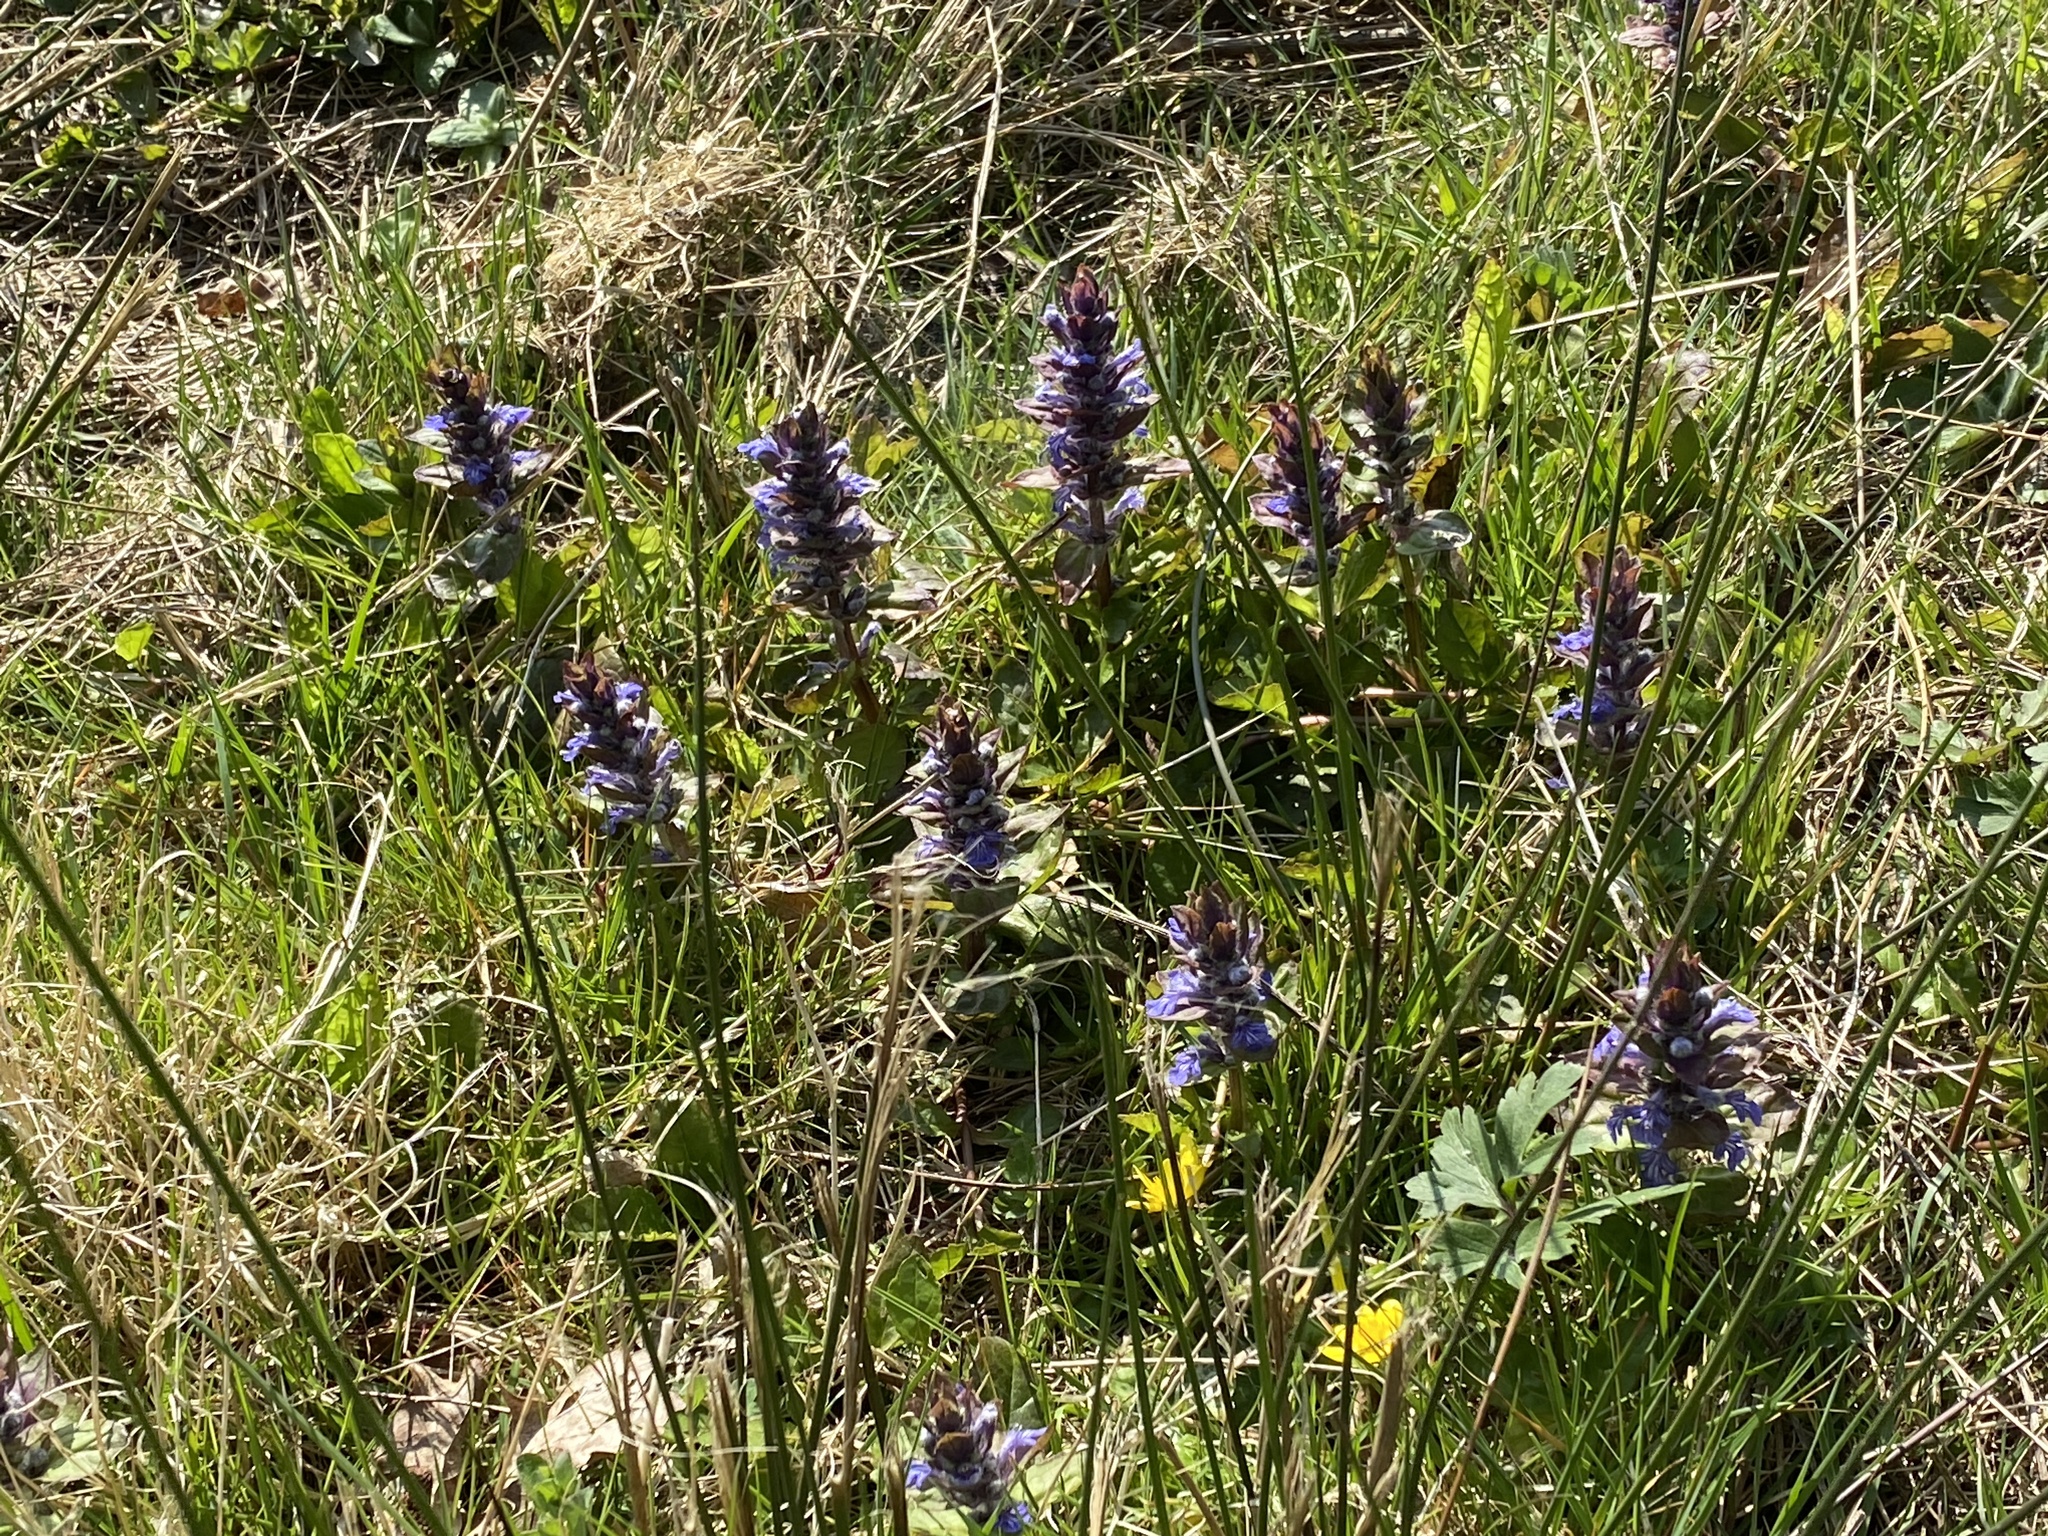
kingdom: Plantae
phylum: Tracheophyta
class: Magnoliopsida
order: Lamiales
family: Lamiaceae
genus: Ajuga
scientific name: Ajuga reptans
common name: Bugle
